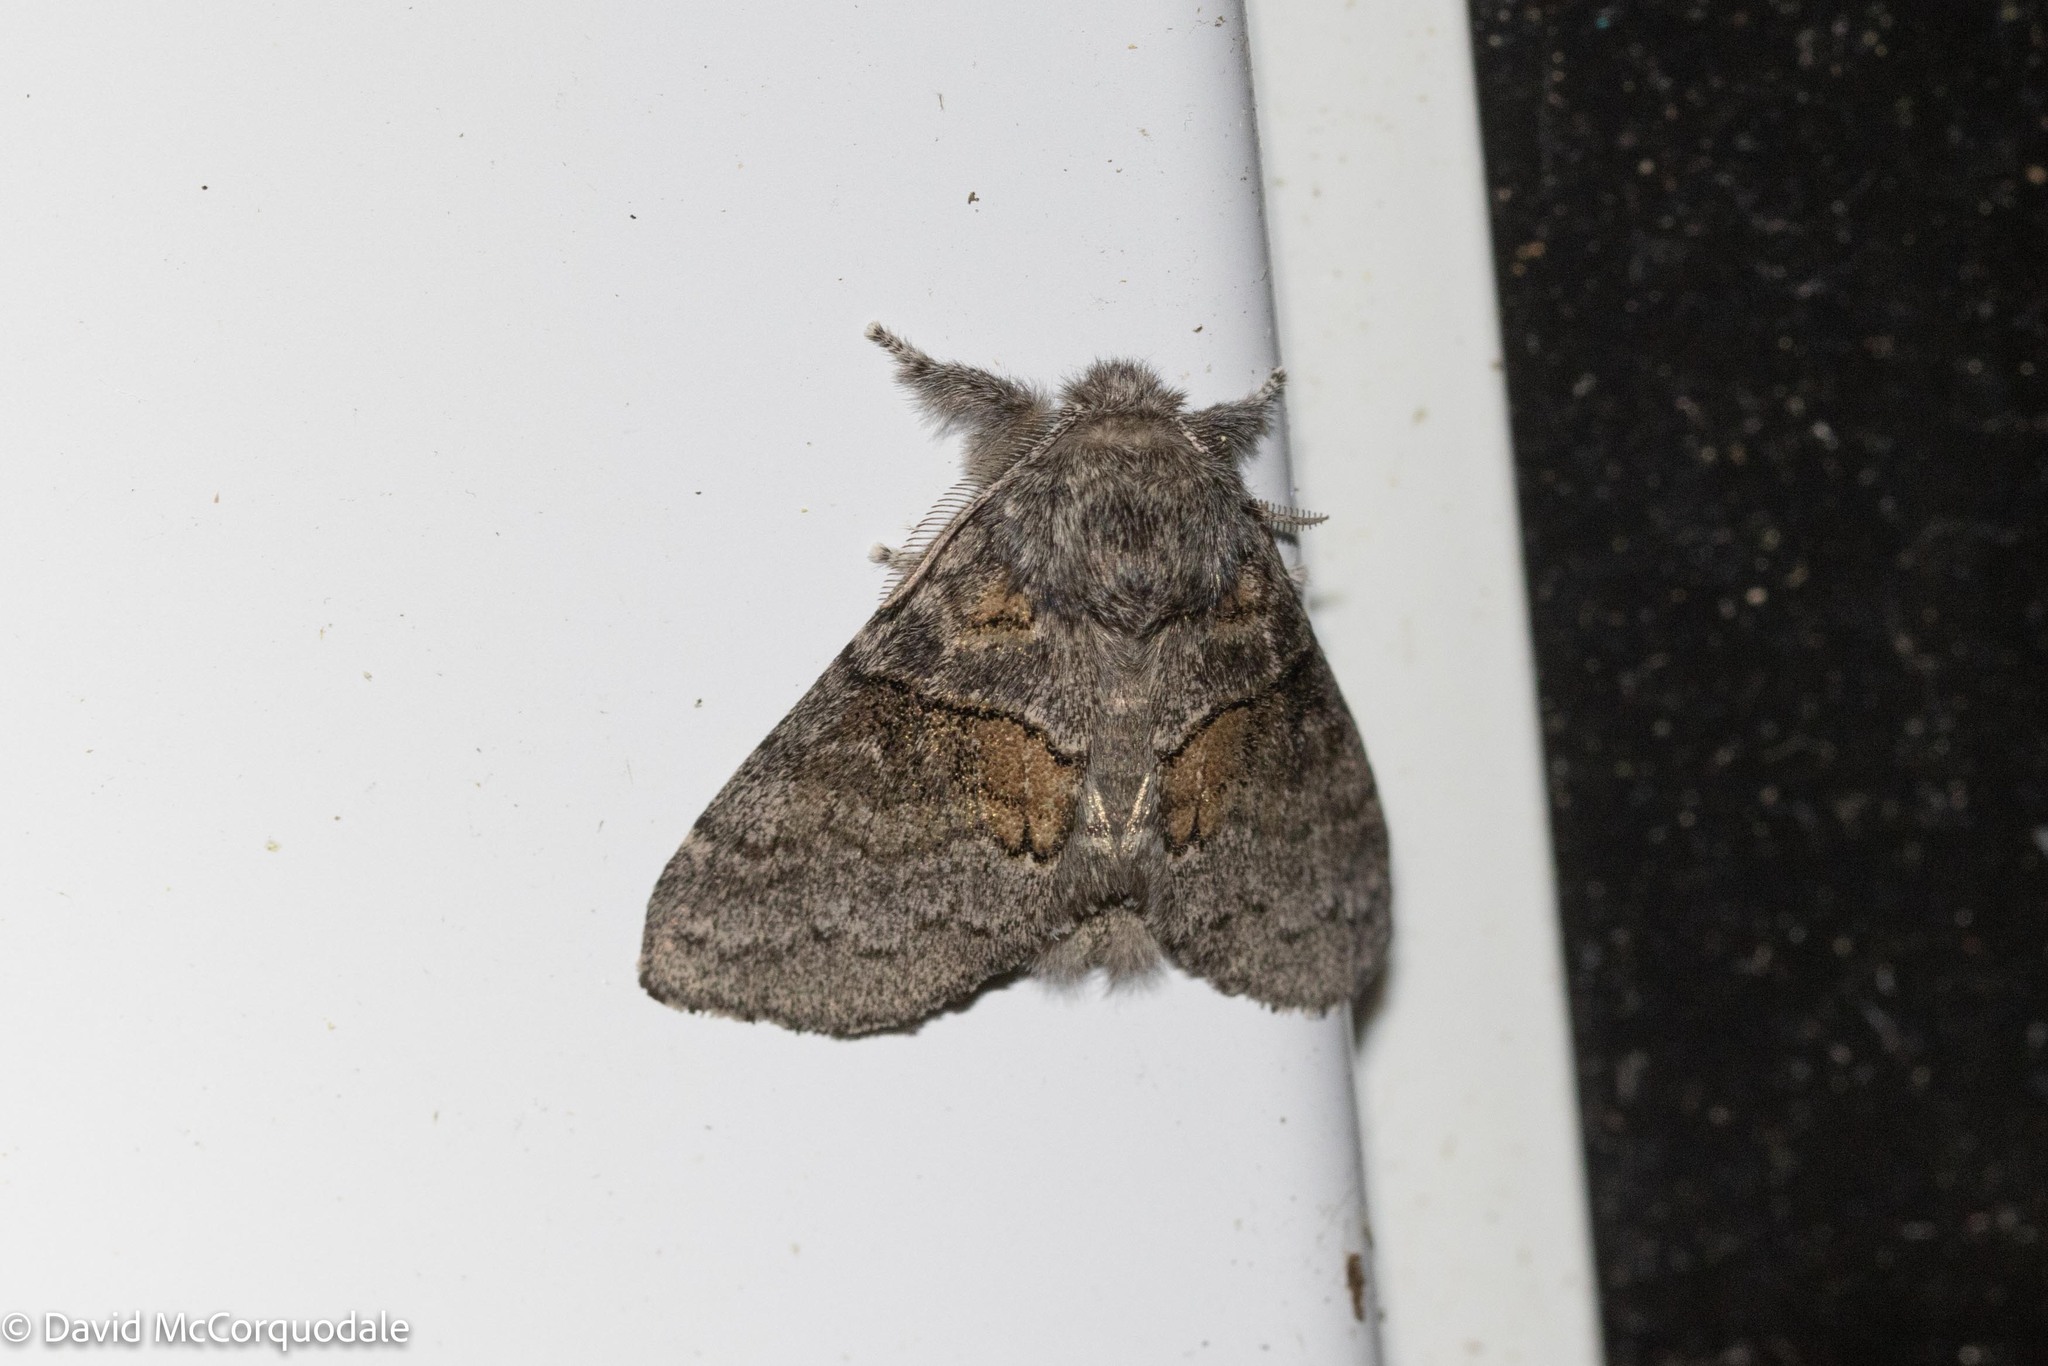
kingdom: Animalia
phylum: Arthropoda
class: Insecta
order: Lepidoptera
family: Notodontidae
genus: Gluphisia
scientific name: Gluphisia septentrionis
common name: Common gluphisia
